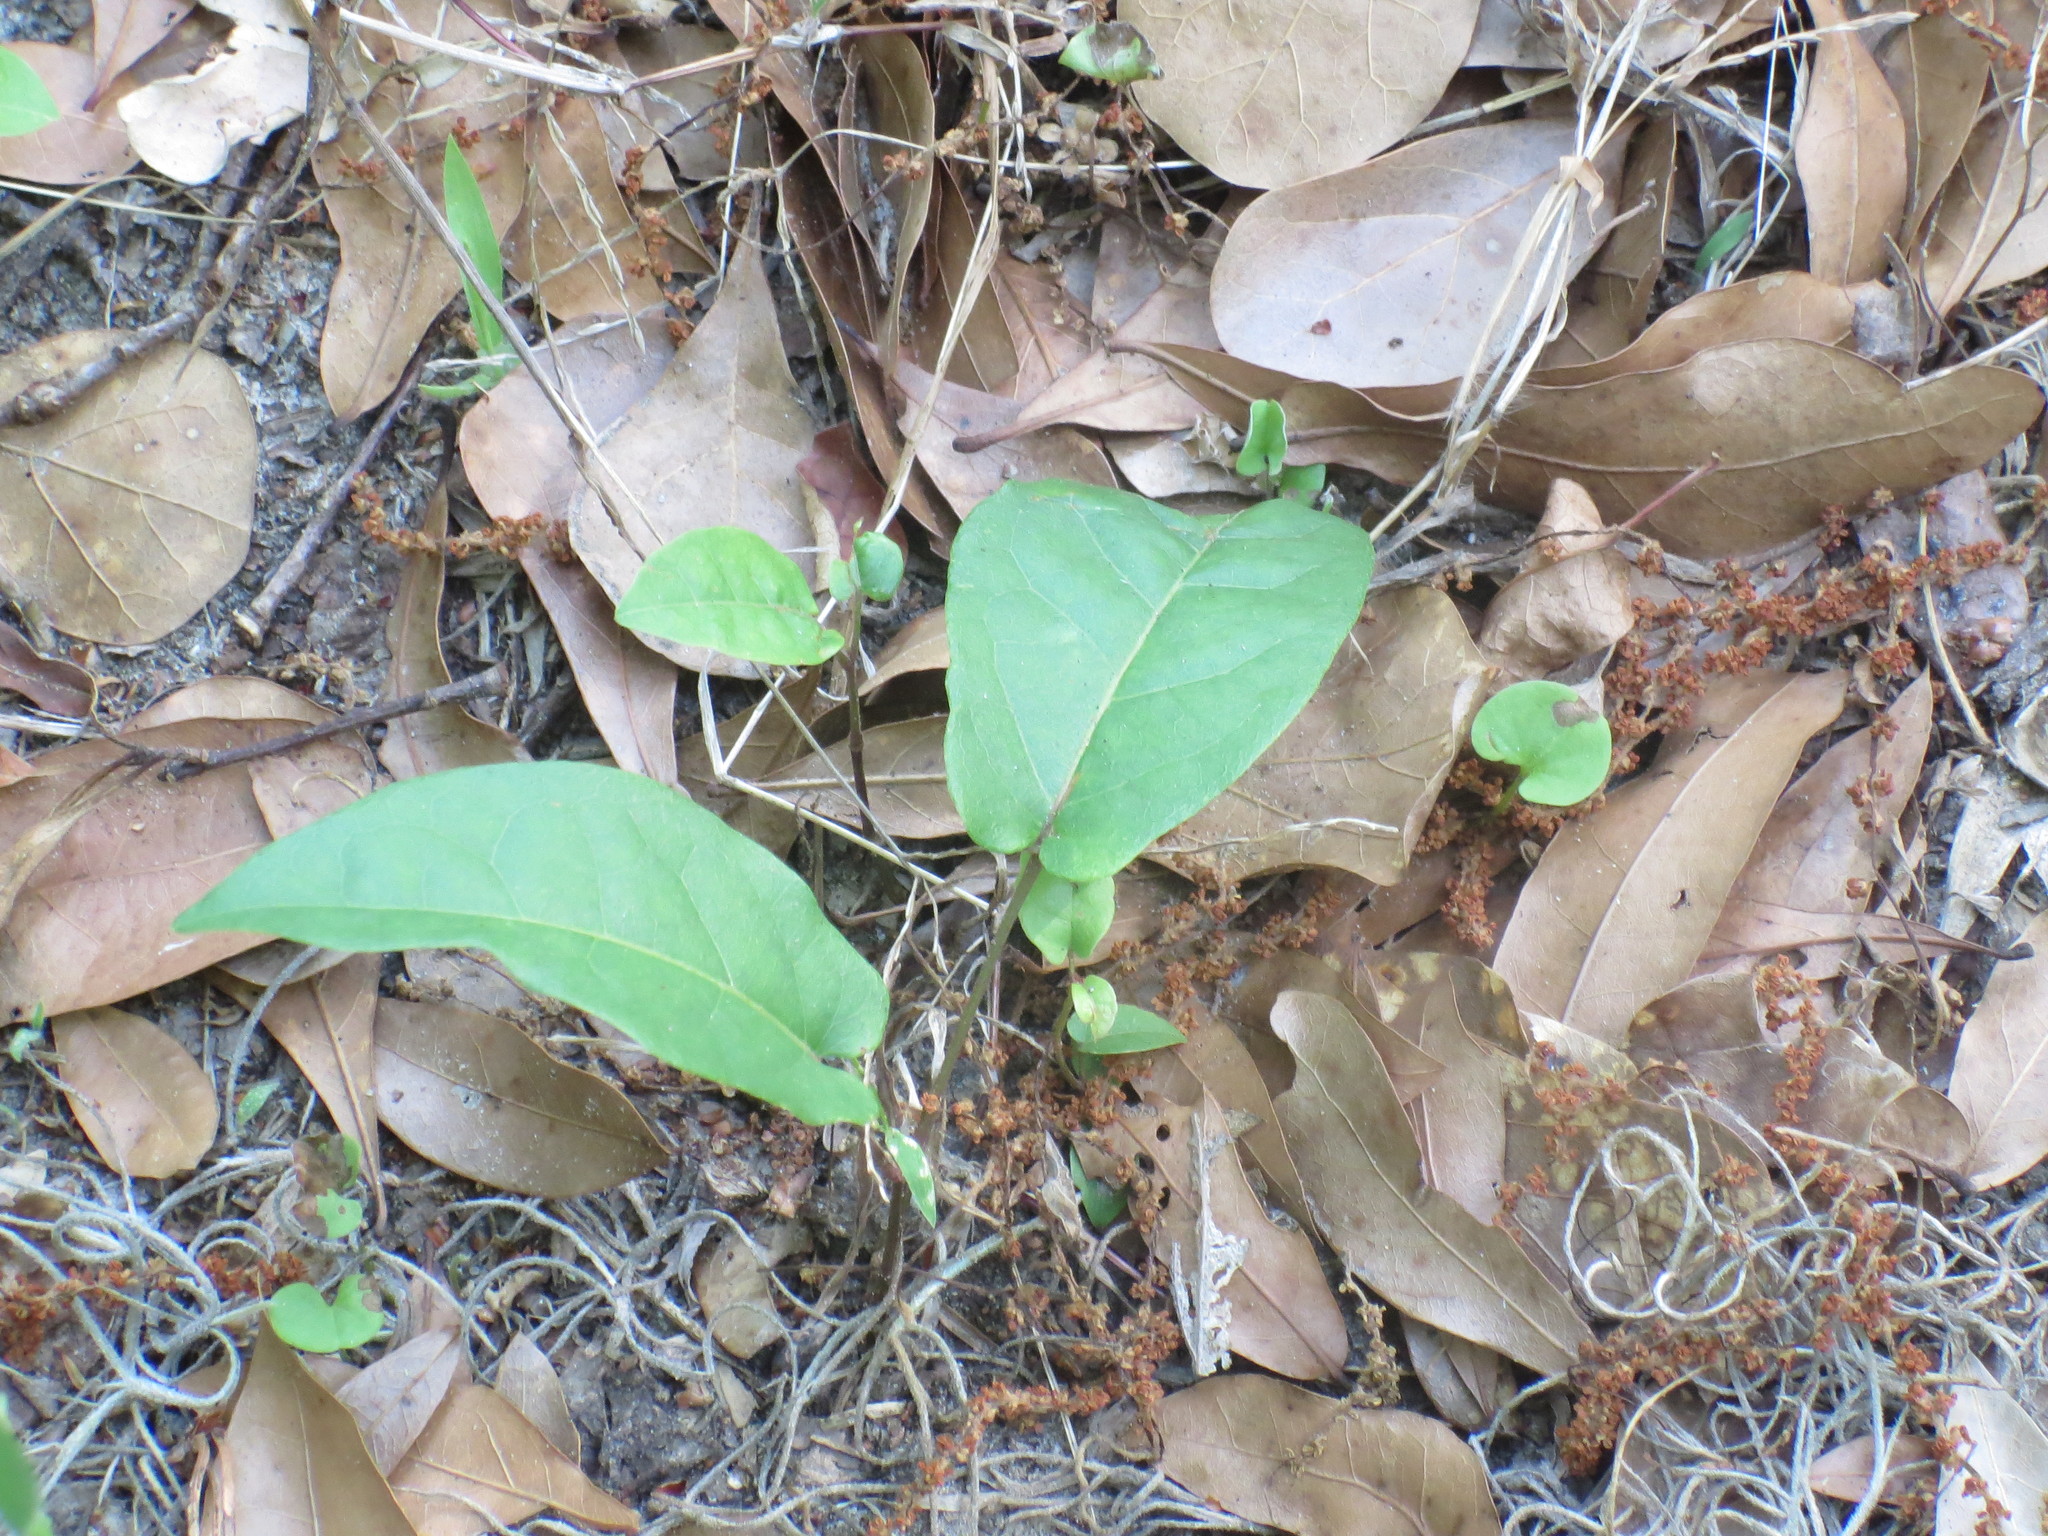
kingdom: Plantae
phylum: Tracheophyta
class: Magnoliopsida
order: Lamiales
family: Bignoniaceae
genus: Bignonia
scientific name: Bignonia capreolata
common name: Crossvine
